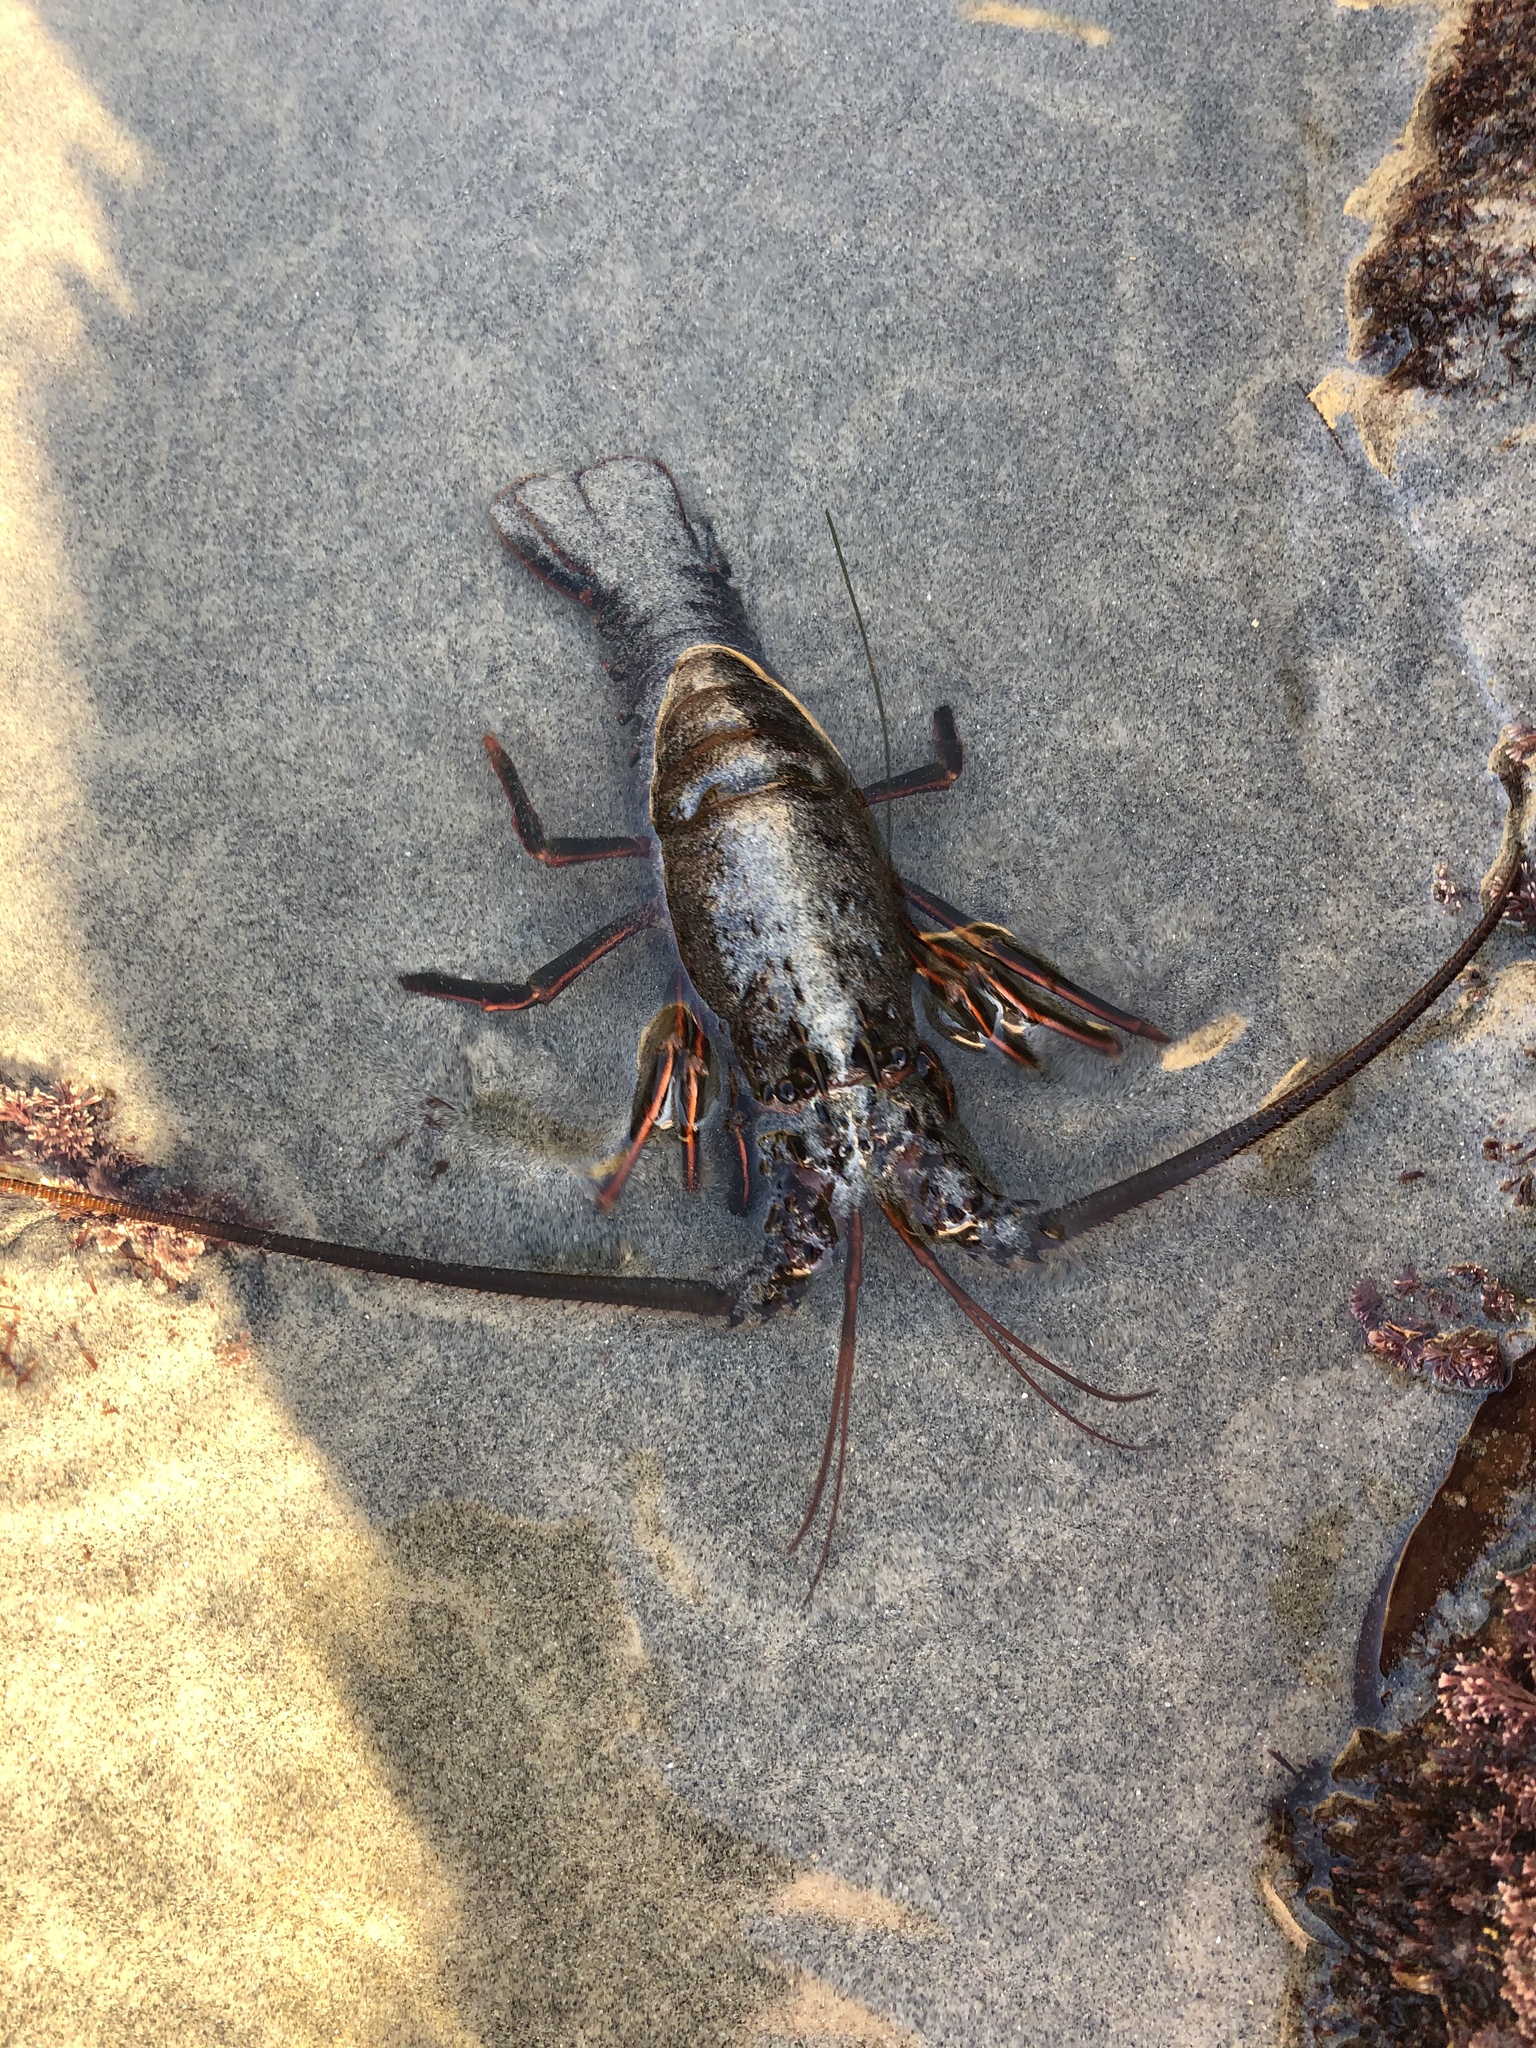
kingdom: Animalia
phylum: Arthropoda
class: Malacostraca
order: Decapoda
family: Palinuridae
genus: Panulirus
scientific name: Panulirus interruptus
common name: California spiny lobster
